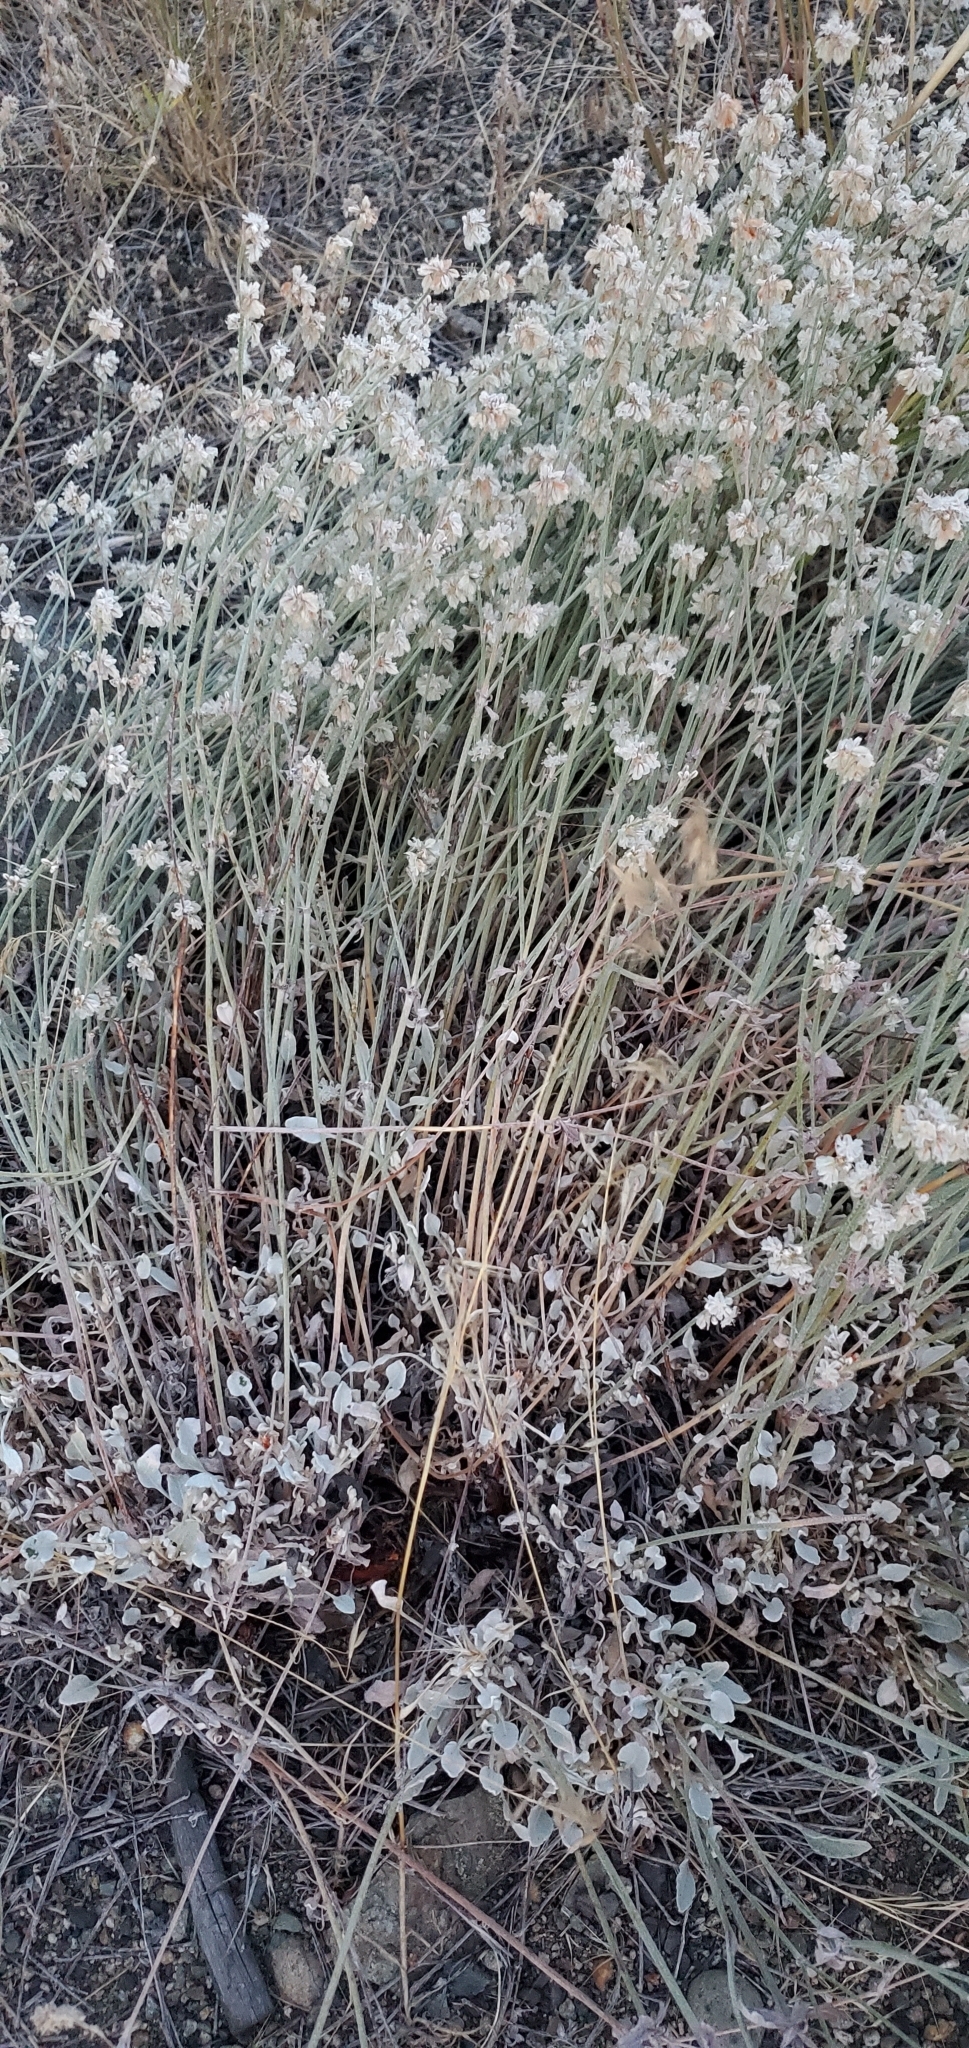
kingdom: Plantae
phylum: Tracheophyta
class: Magnoliopsida
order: Caryophyllales
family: Polygonaceae
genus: Eriogonum
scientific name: Eriogonum niveum
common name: Snow wild buckwheat
